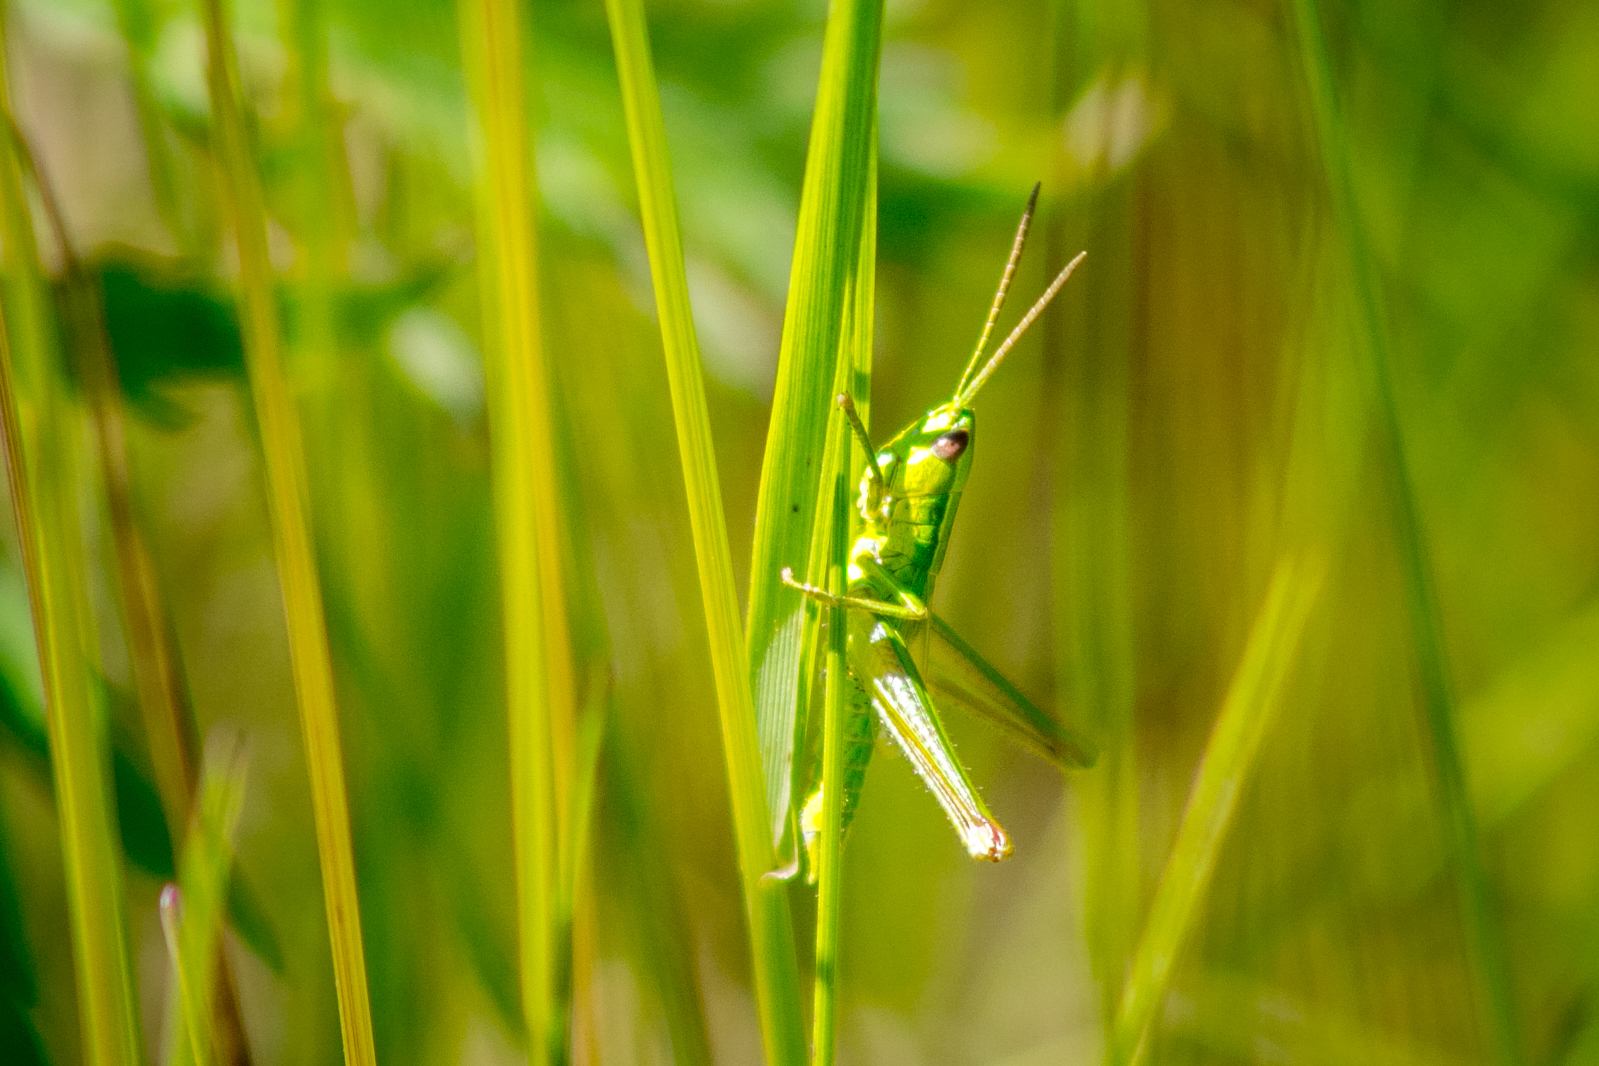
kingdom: Animalia
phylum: Arthropoda
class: Insecta
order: Orthoptera
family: Acrididae
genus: Euthystira
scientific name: Euthystira brachyptera
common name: Small gold grasshopper
